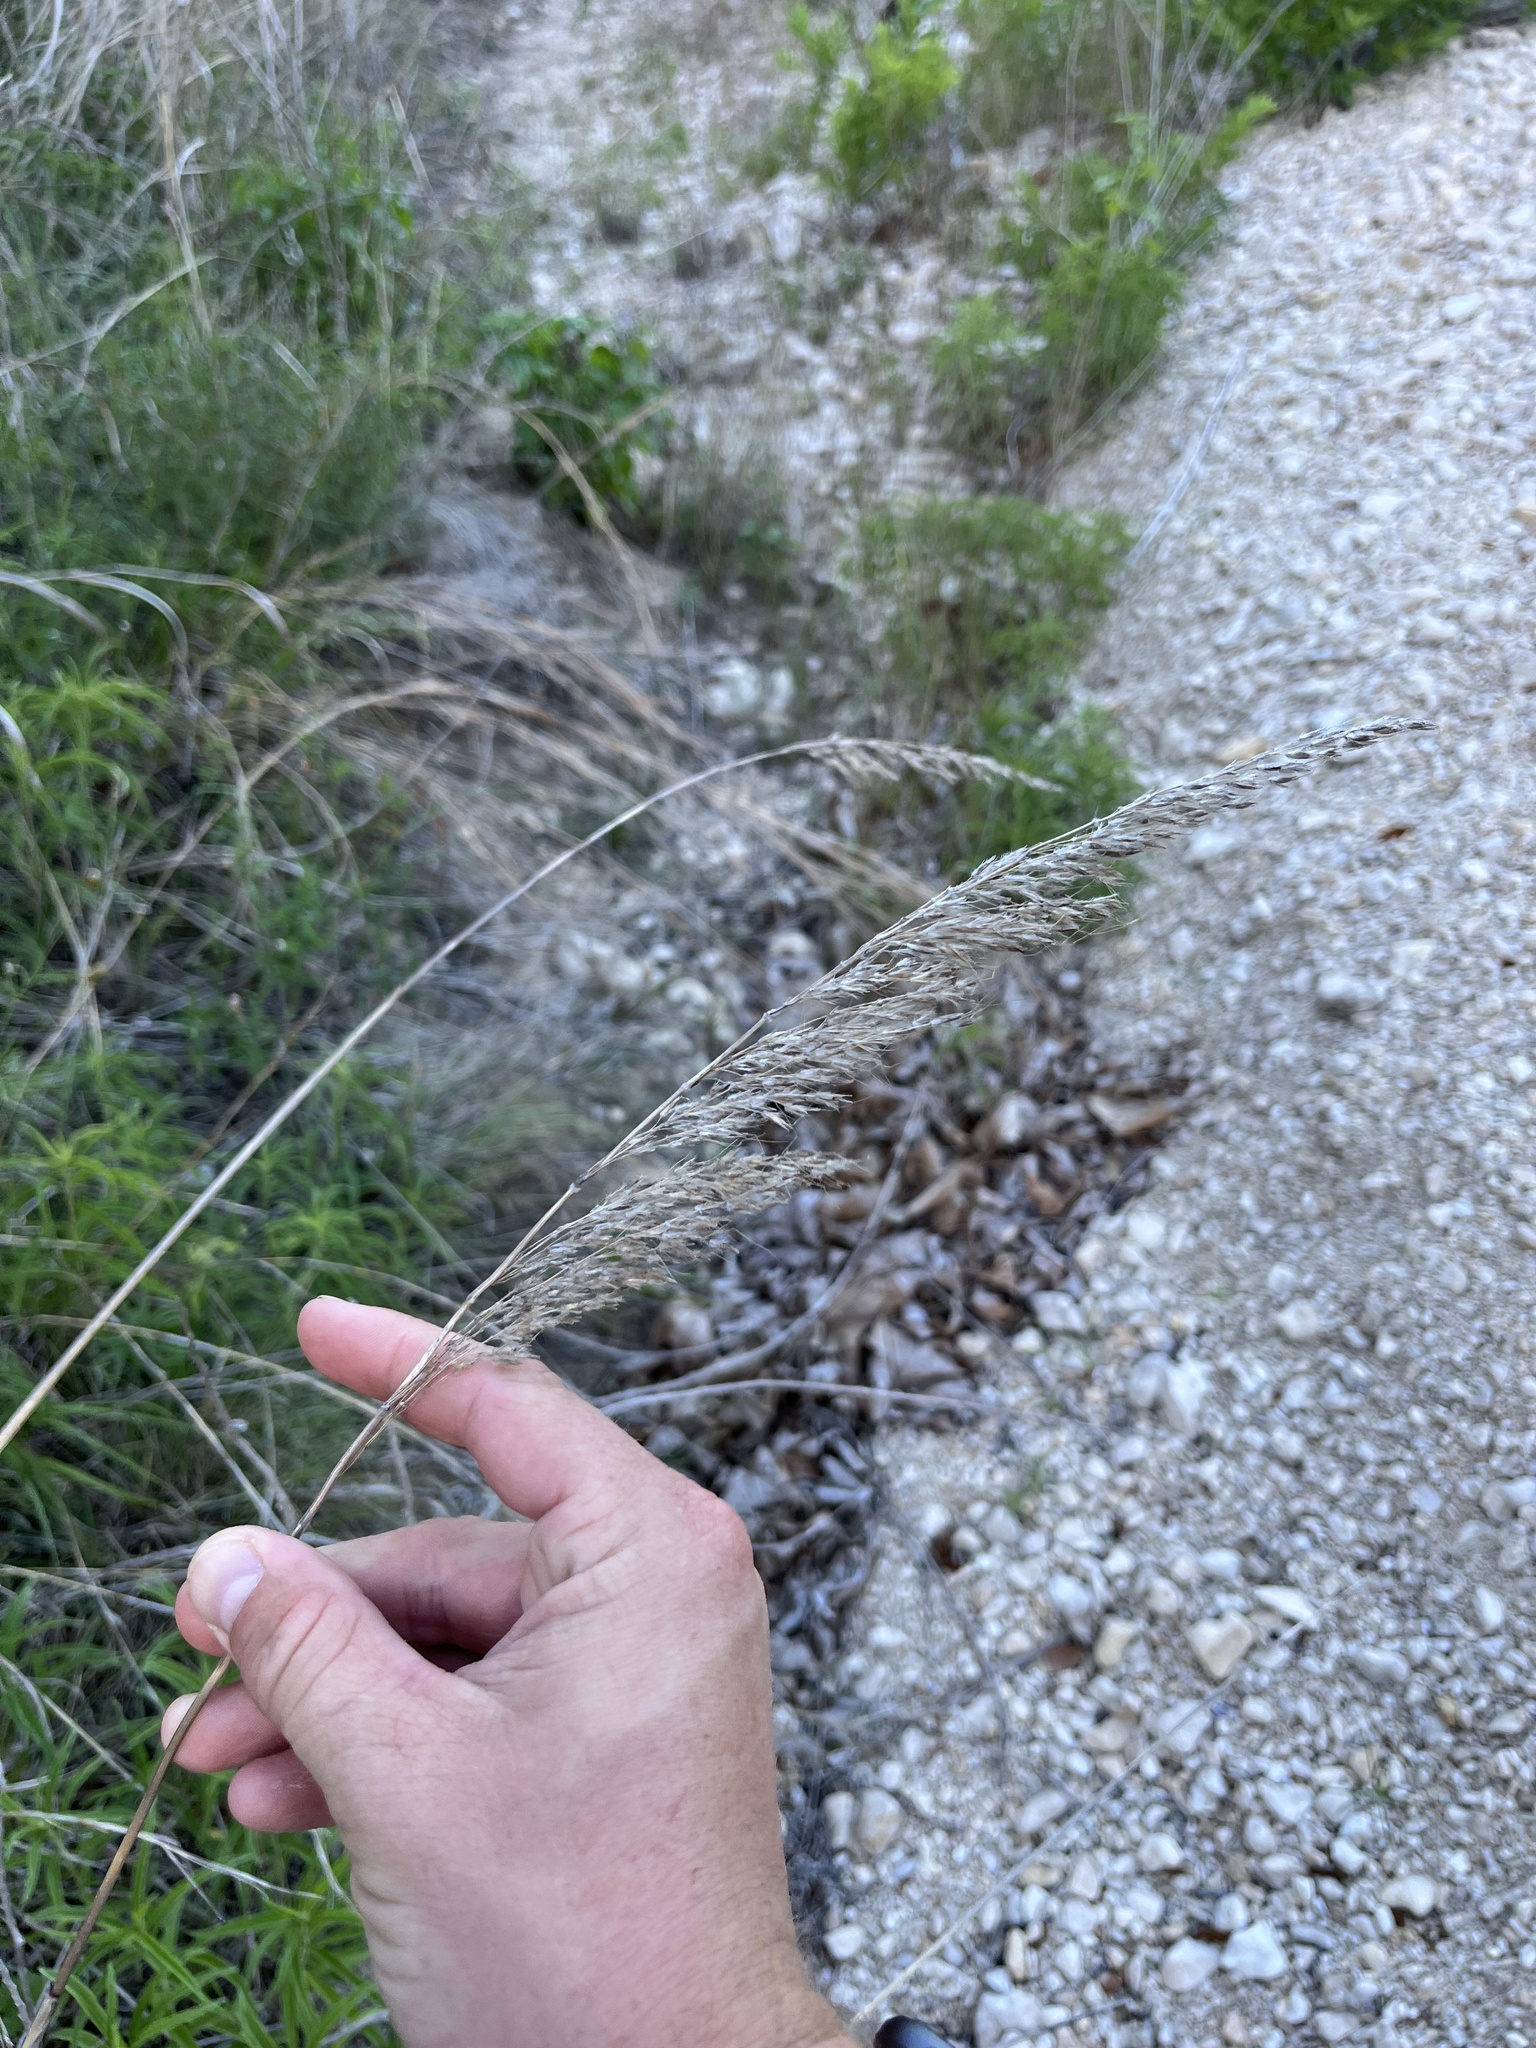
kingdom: Plantae
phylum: Tracheophyta
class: Liliopsida
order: Poales
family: Poaceae
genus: Sorghastrum
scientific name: Sorghastrum nutans
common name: Indian grass
